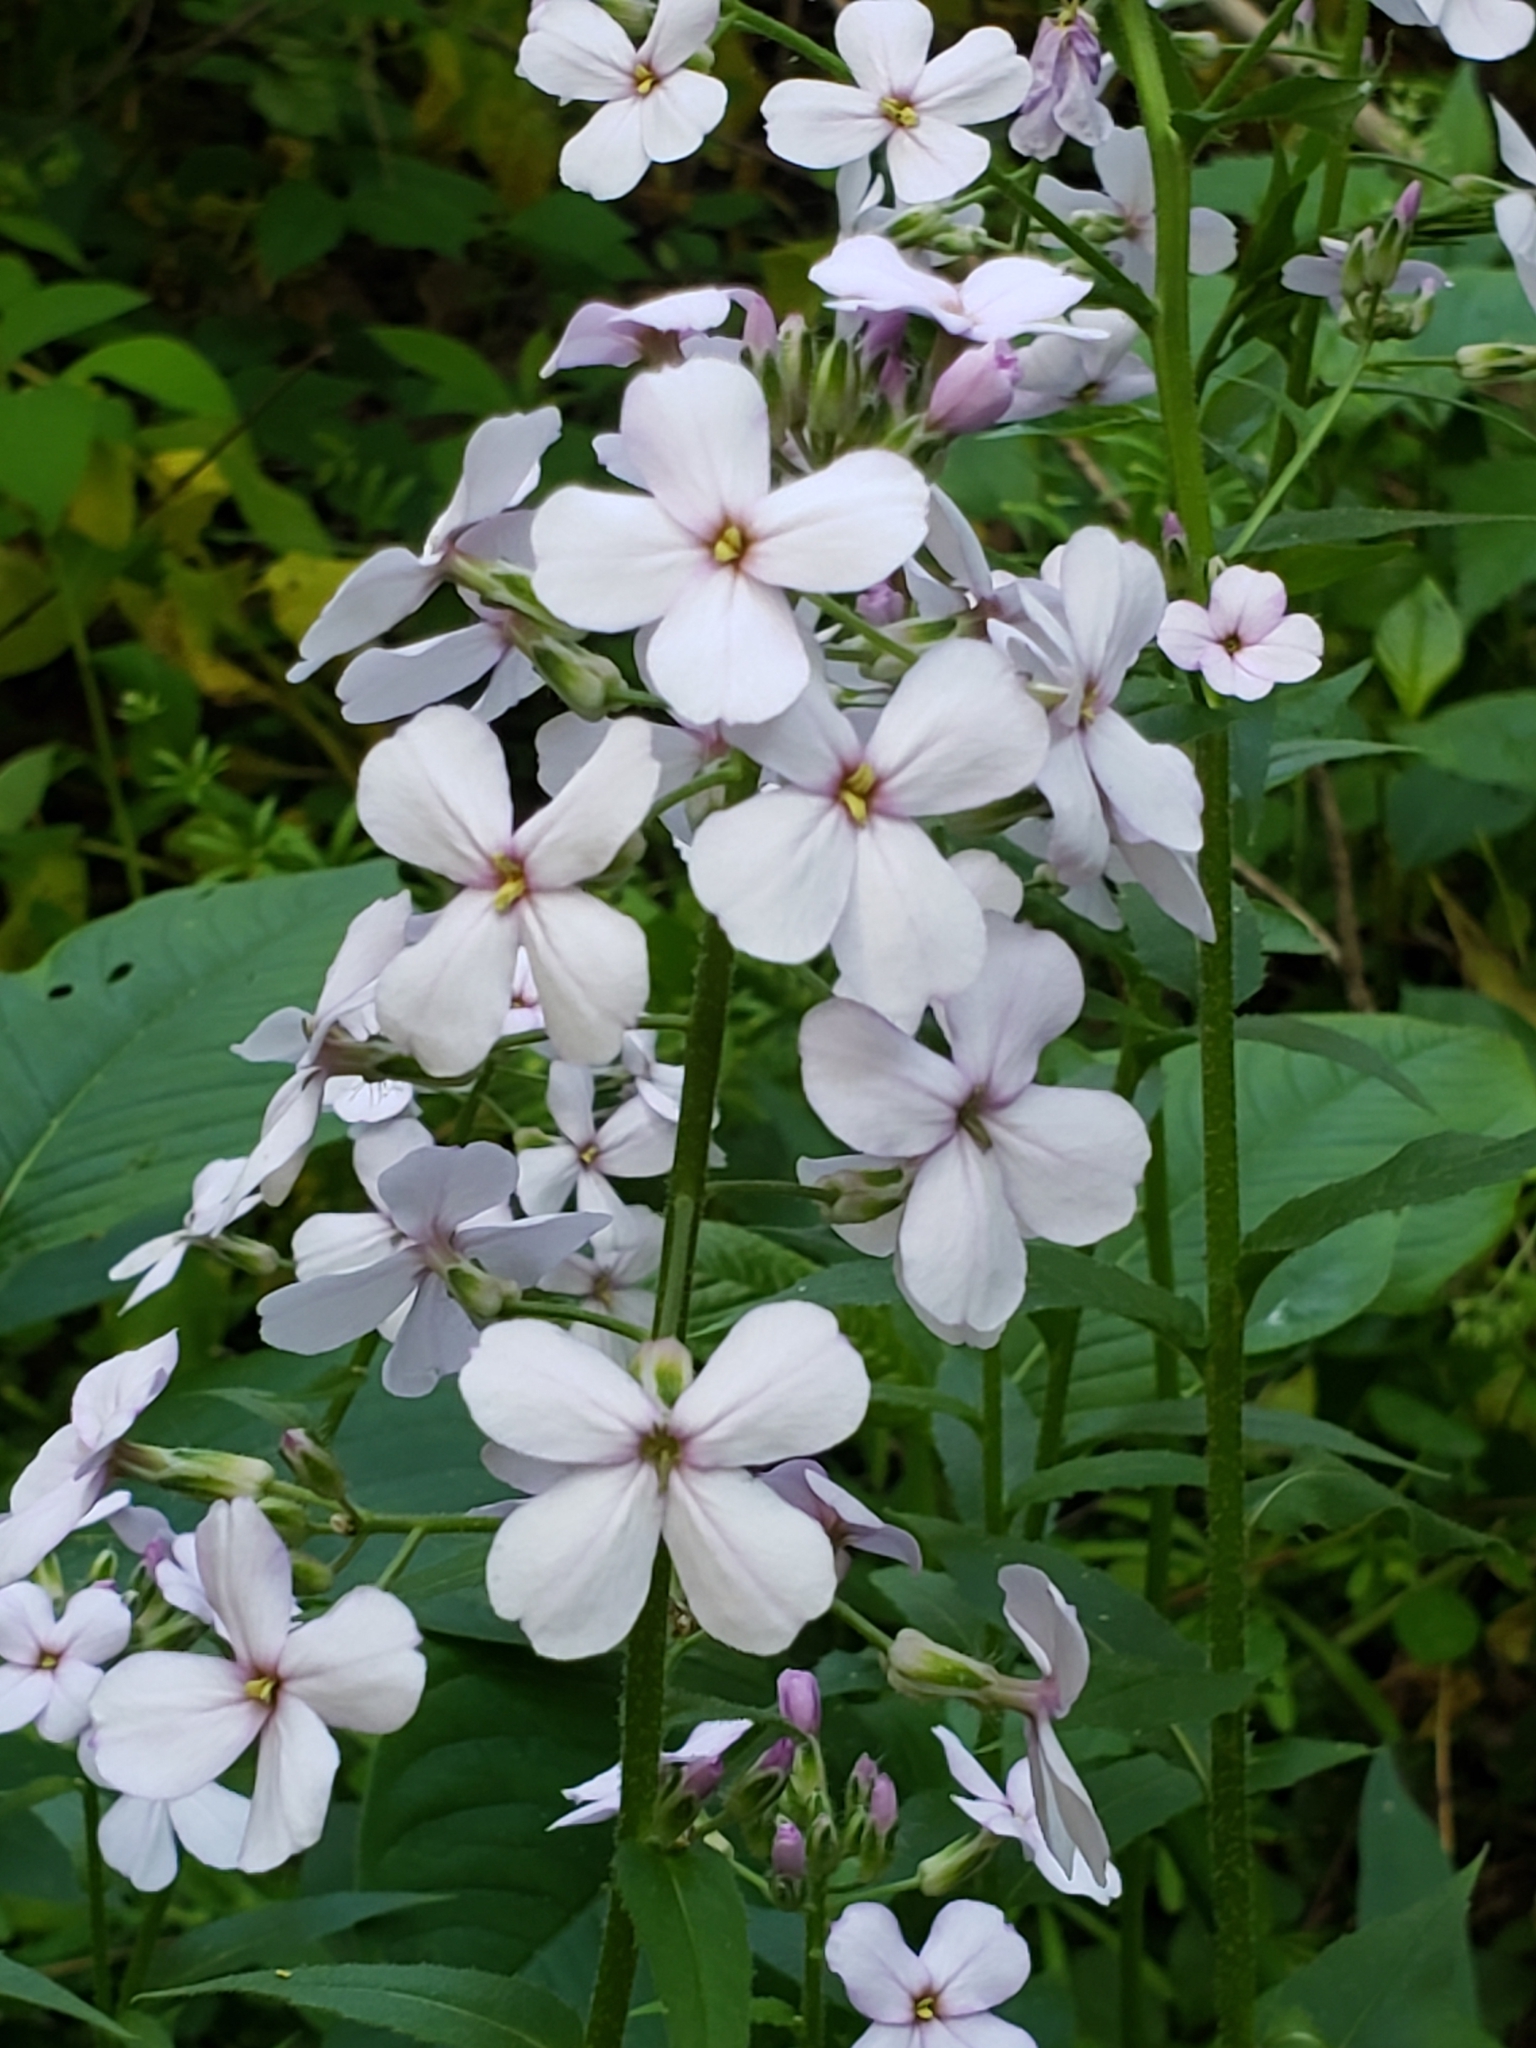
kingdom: Plantae
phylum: Tracheophyta
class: Magnoliopsida
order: Brassicales
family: Brassicaceae
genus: Hesperis
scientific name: Hesperis matronalis
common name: Dame's-violet
